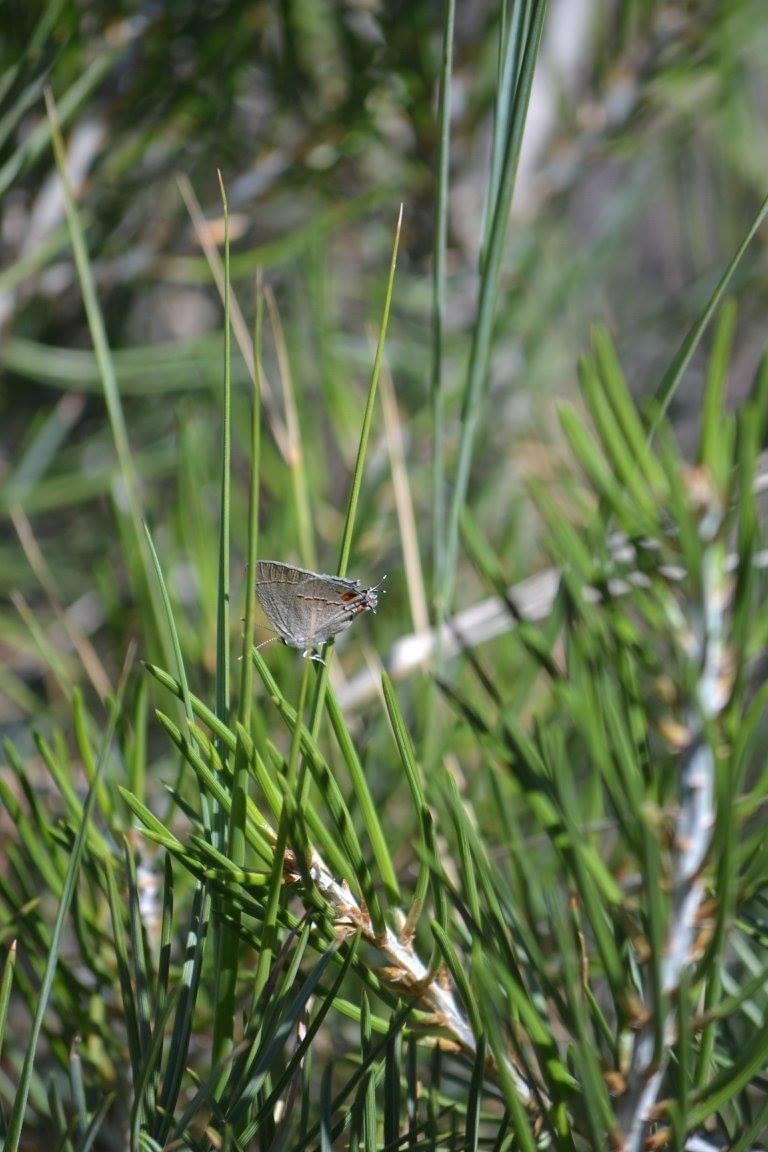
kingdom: Animalia
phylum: Arthropoda
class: Insecta
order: Lepidoptera
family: Lycaenidae
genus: Strymon
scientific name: Strymon melinus
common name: Gray hairstreak
